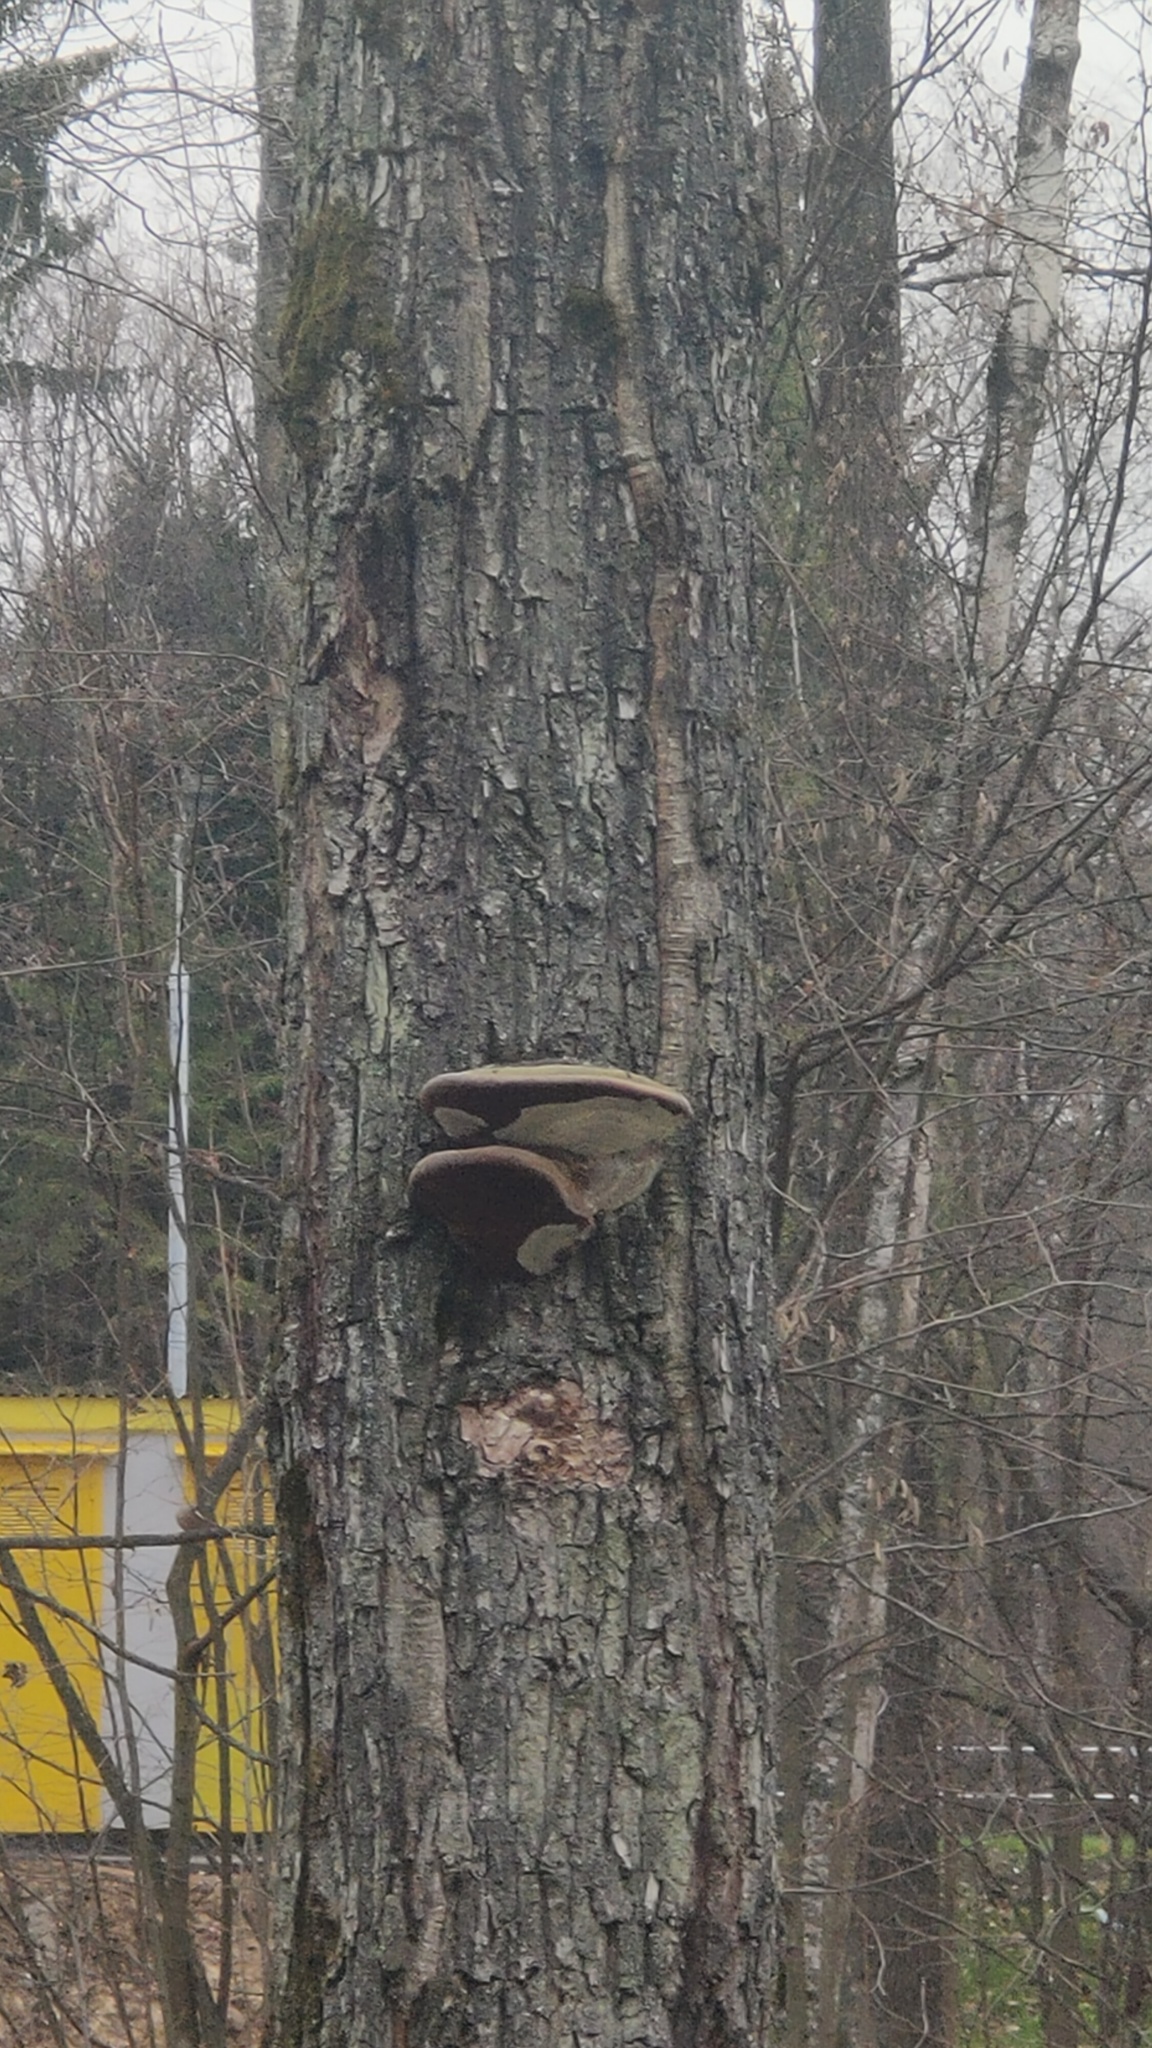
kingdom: Fungi
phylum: Basidiomycota
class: Agaricomycetes
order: Hymenochaetales
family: Hymenochaetaceae
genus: Phellinus
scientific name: Phellinus igniarius
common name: Willow bracket
